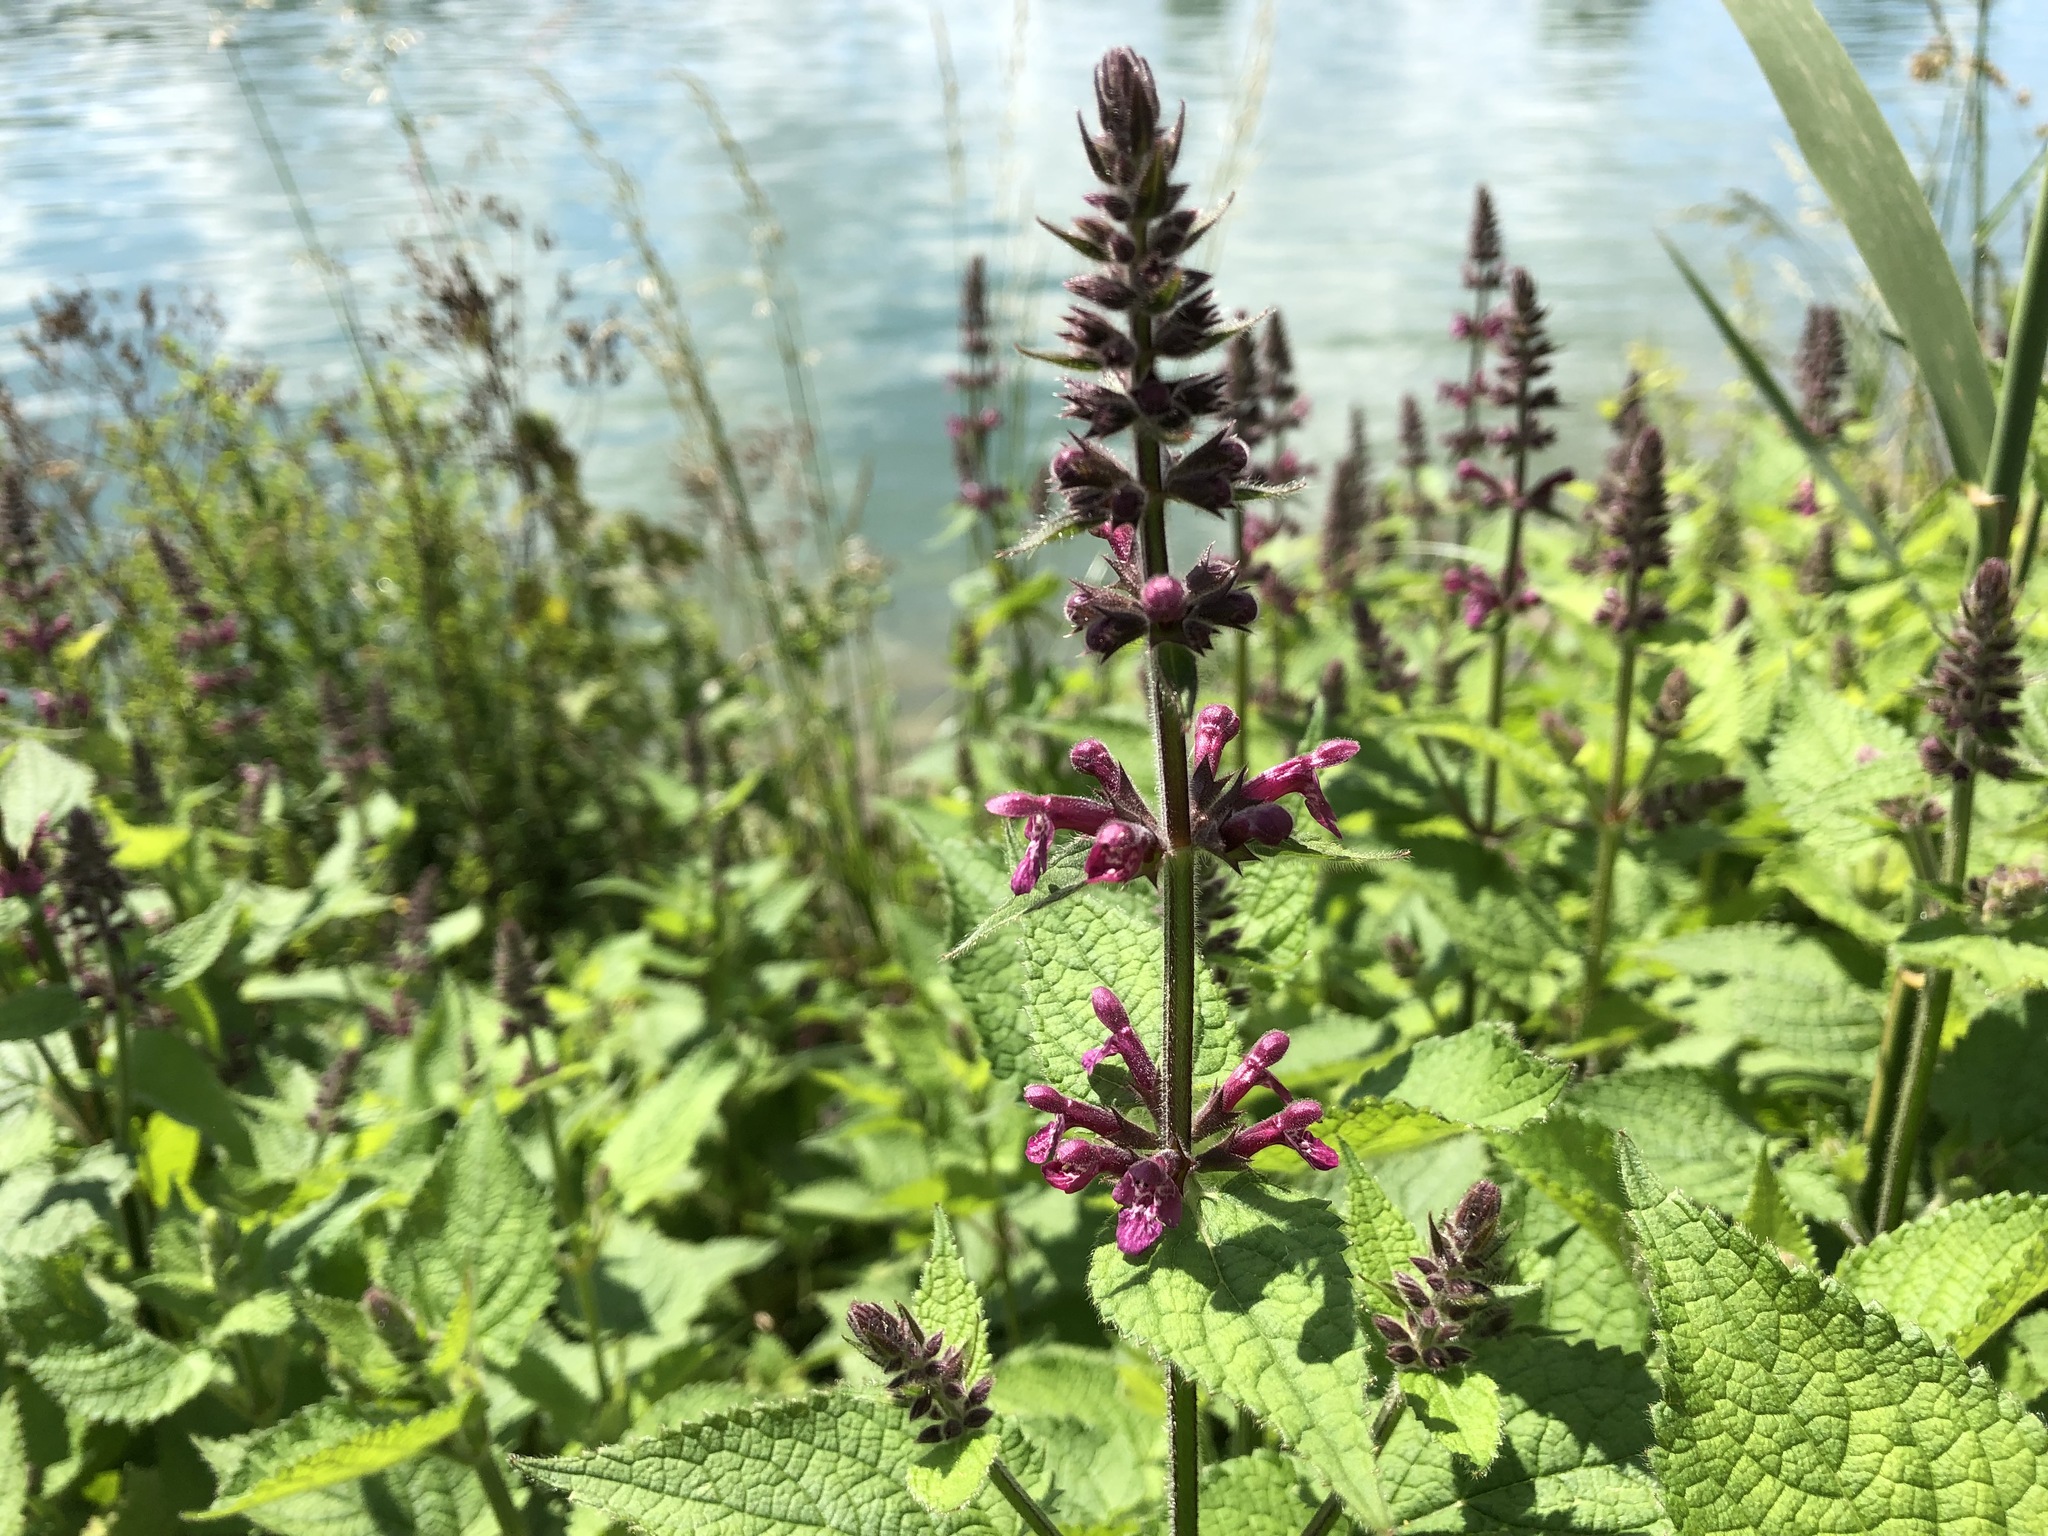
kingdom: Plantae
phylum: Tracheophyta
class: Magnoliopsida
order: Lamiales
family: Lamiaceae
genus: Stachys
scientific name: Stachys sylvatica
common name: Hedge woundwort
